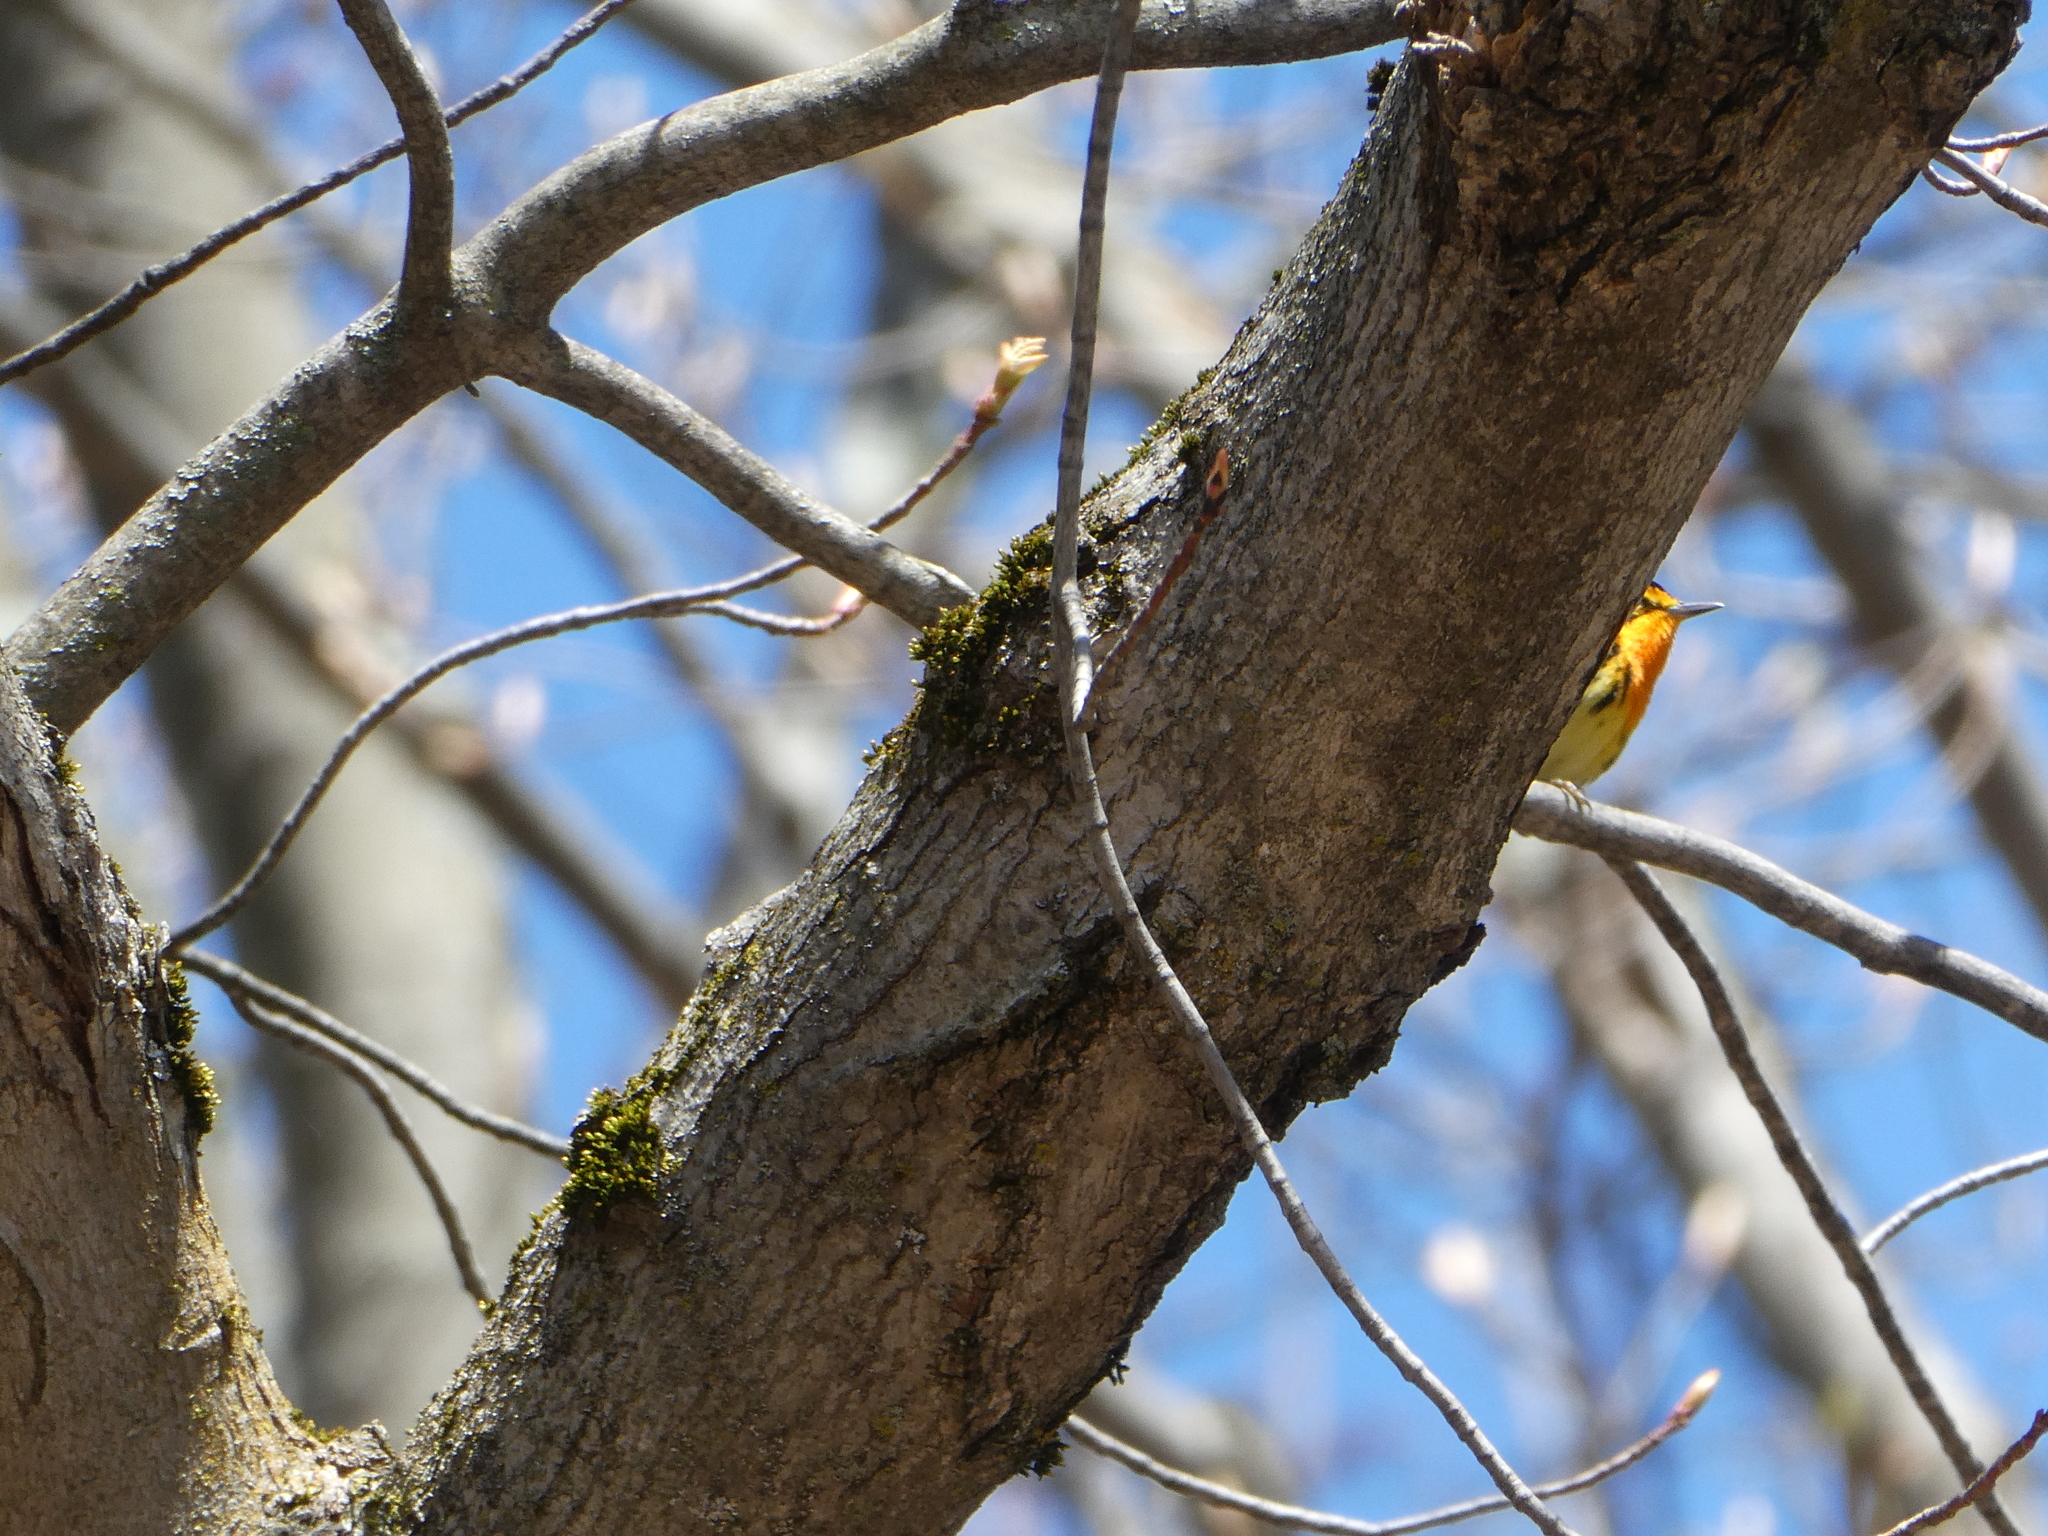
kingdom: Animalia
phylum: Chordata
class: Aves
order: Passeriformes
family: Parulidae
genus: Setophaga
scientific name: Setophaga fusca
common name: Blackburnian warbler
